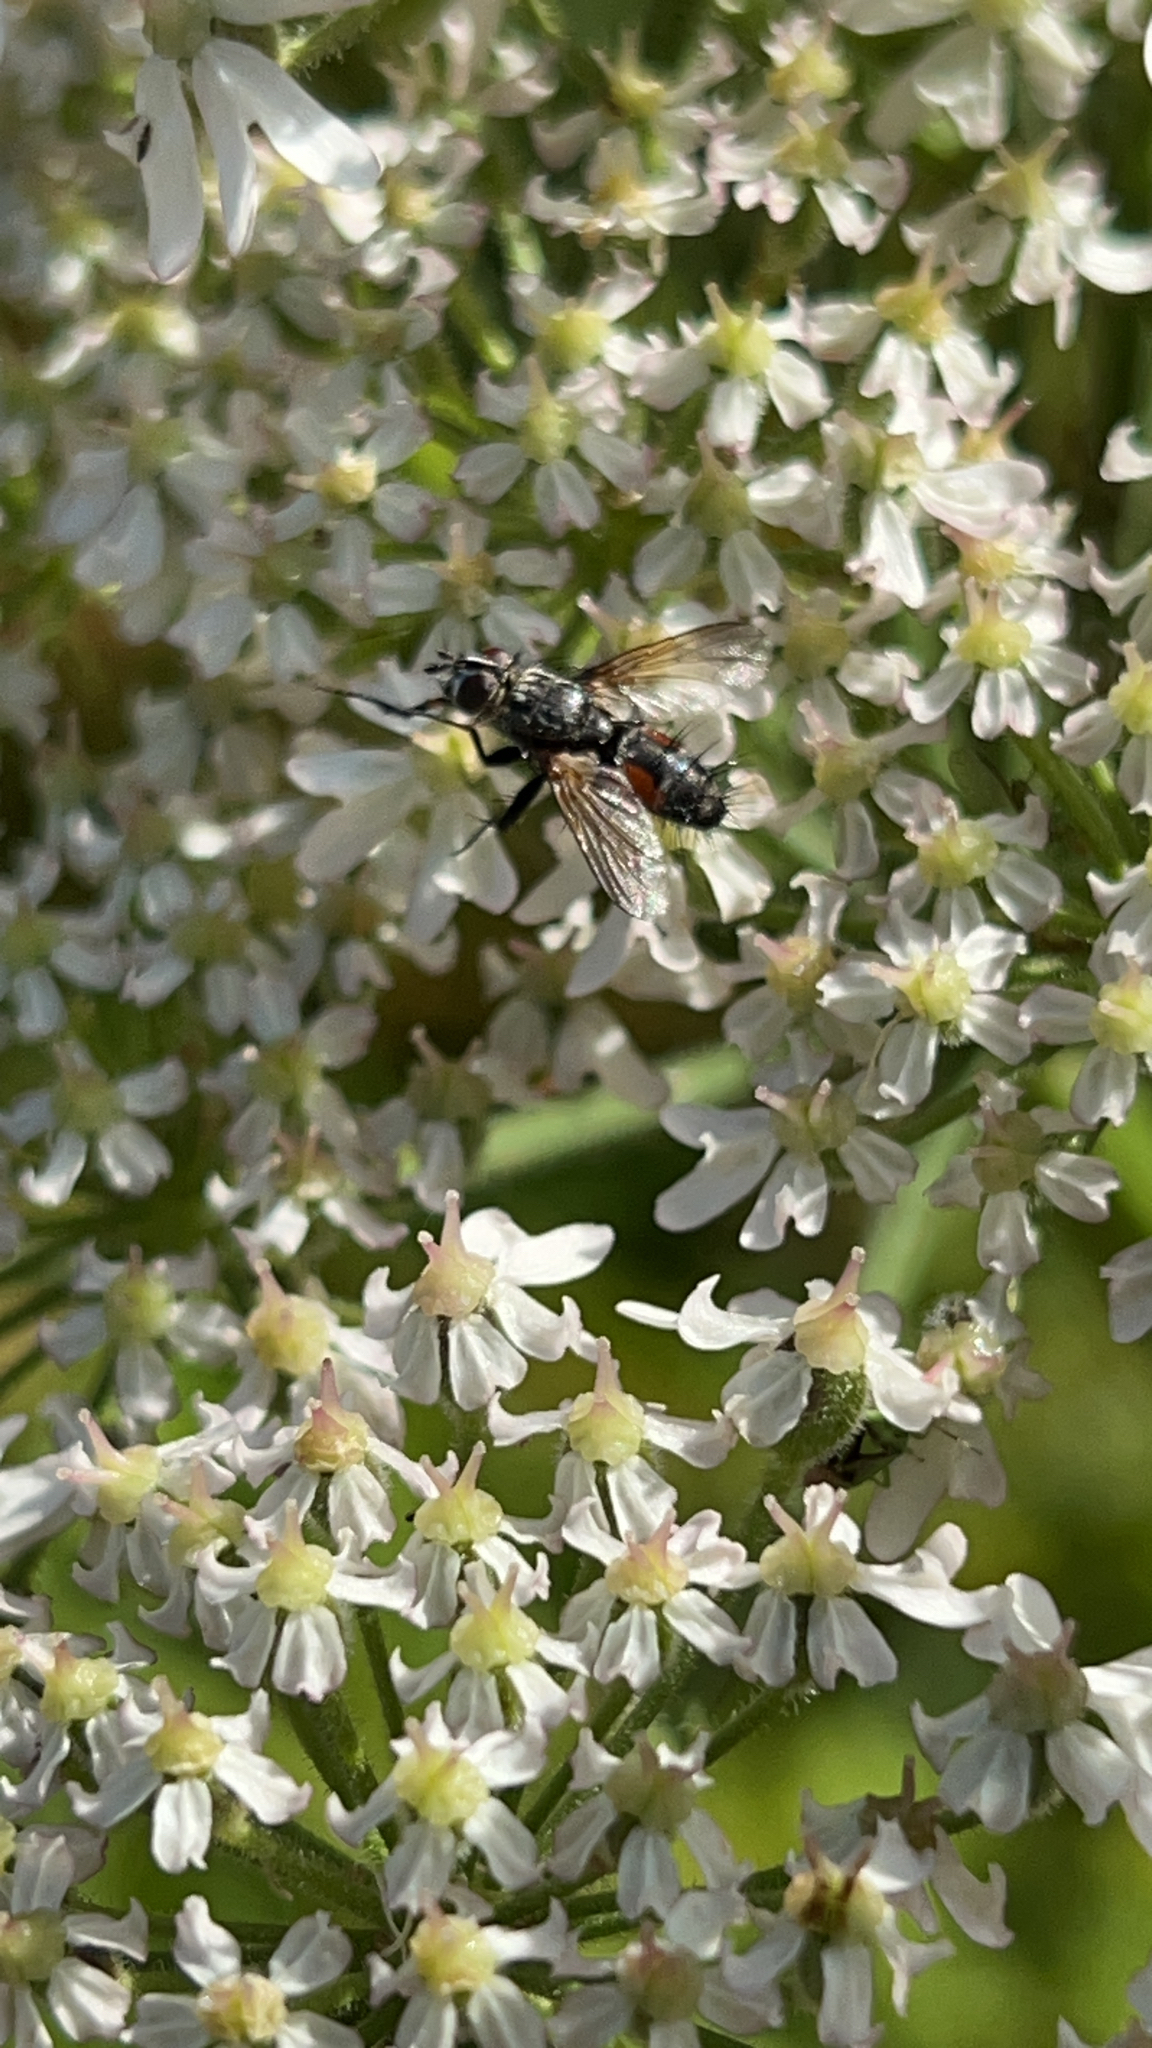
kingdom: Animalia
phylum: Arthropoda
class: Insecta
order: Diptera
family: Tachinidae
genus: Eriothrix
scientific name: Eriothrix rufomaculatus
